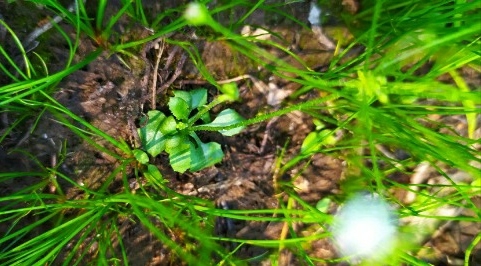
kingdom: Plantae
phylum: Tracheophyta
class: Magnoliopsida
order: Ericales
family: Primulaceae
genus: Androsace
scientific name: Androsace filiformis
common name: Filiform rock jasmine
